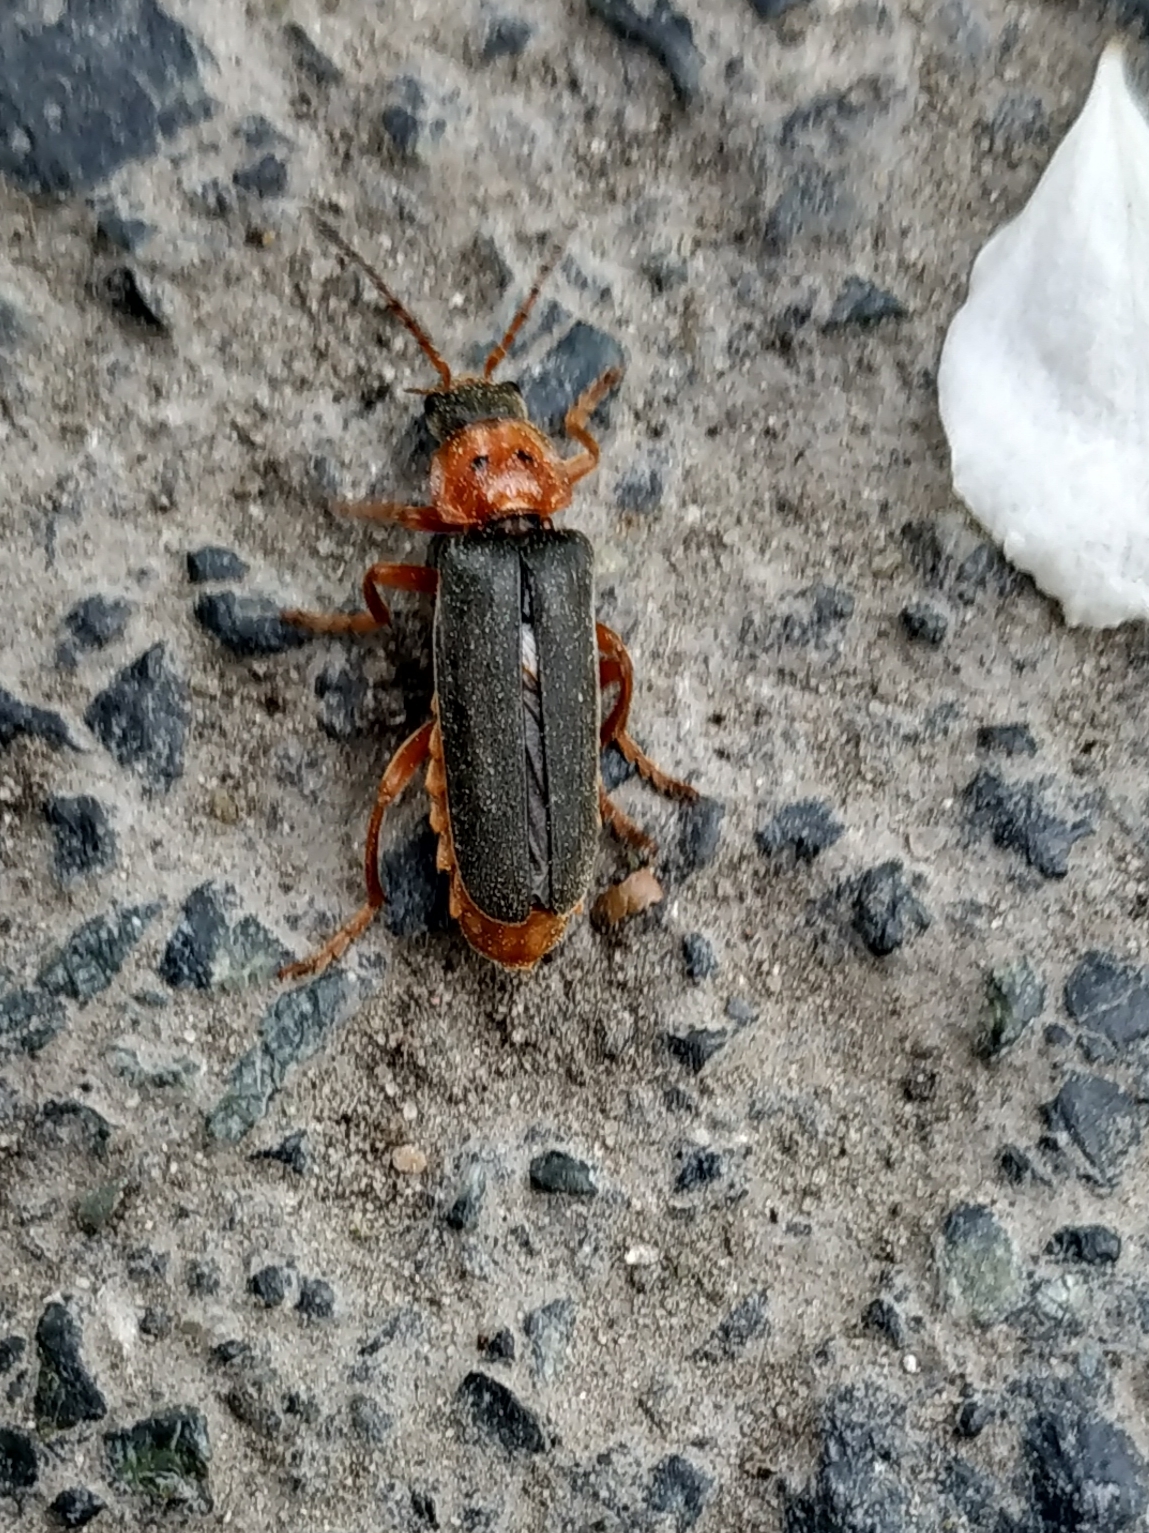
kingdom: Animalia
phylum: Arthropoda
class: Insecta
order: Coleoptera
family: Cantharidae
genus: Cantharis
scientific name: Cantharis annularis
